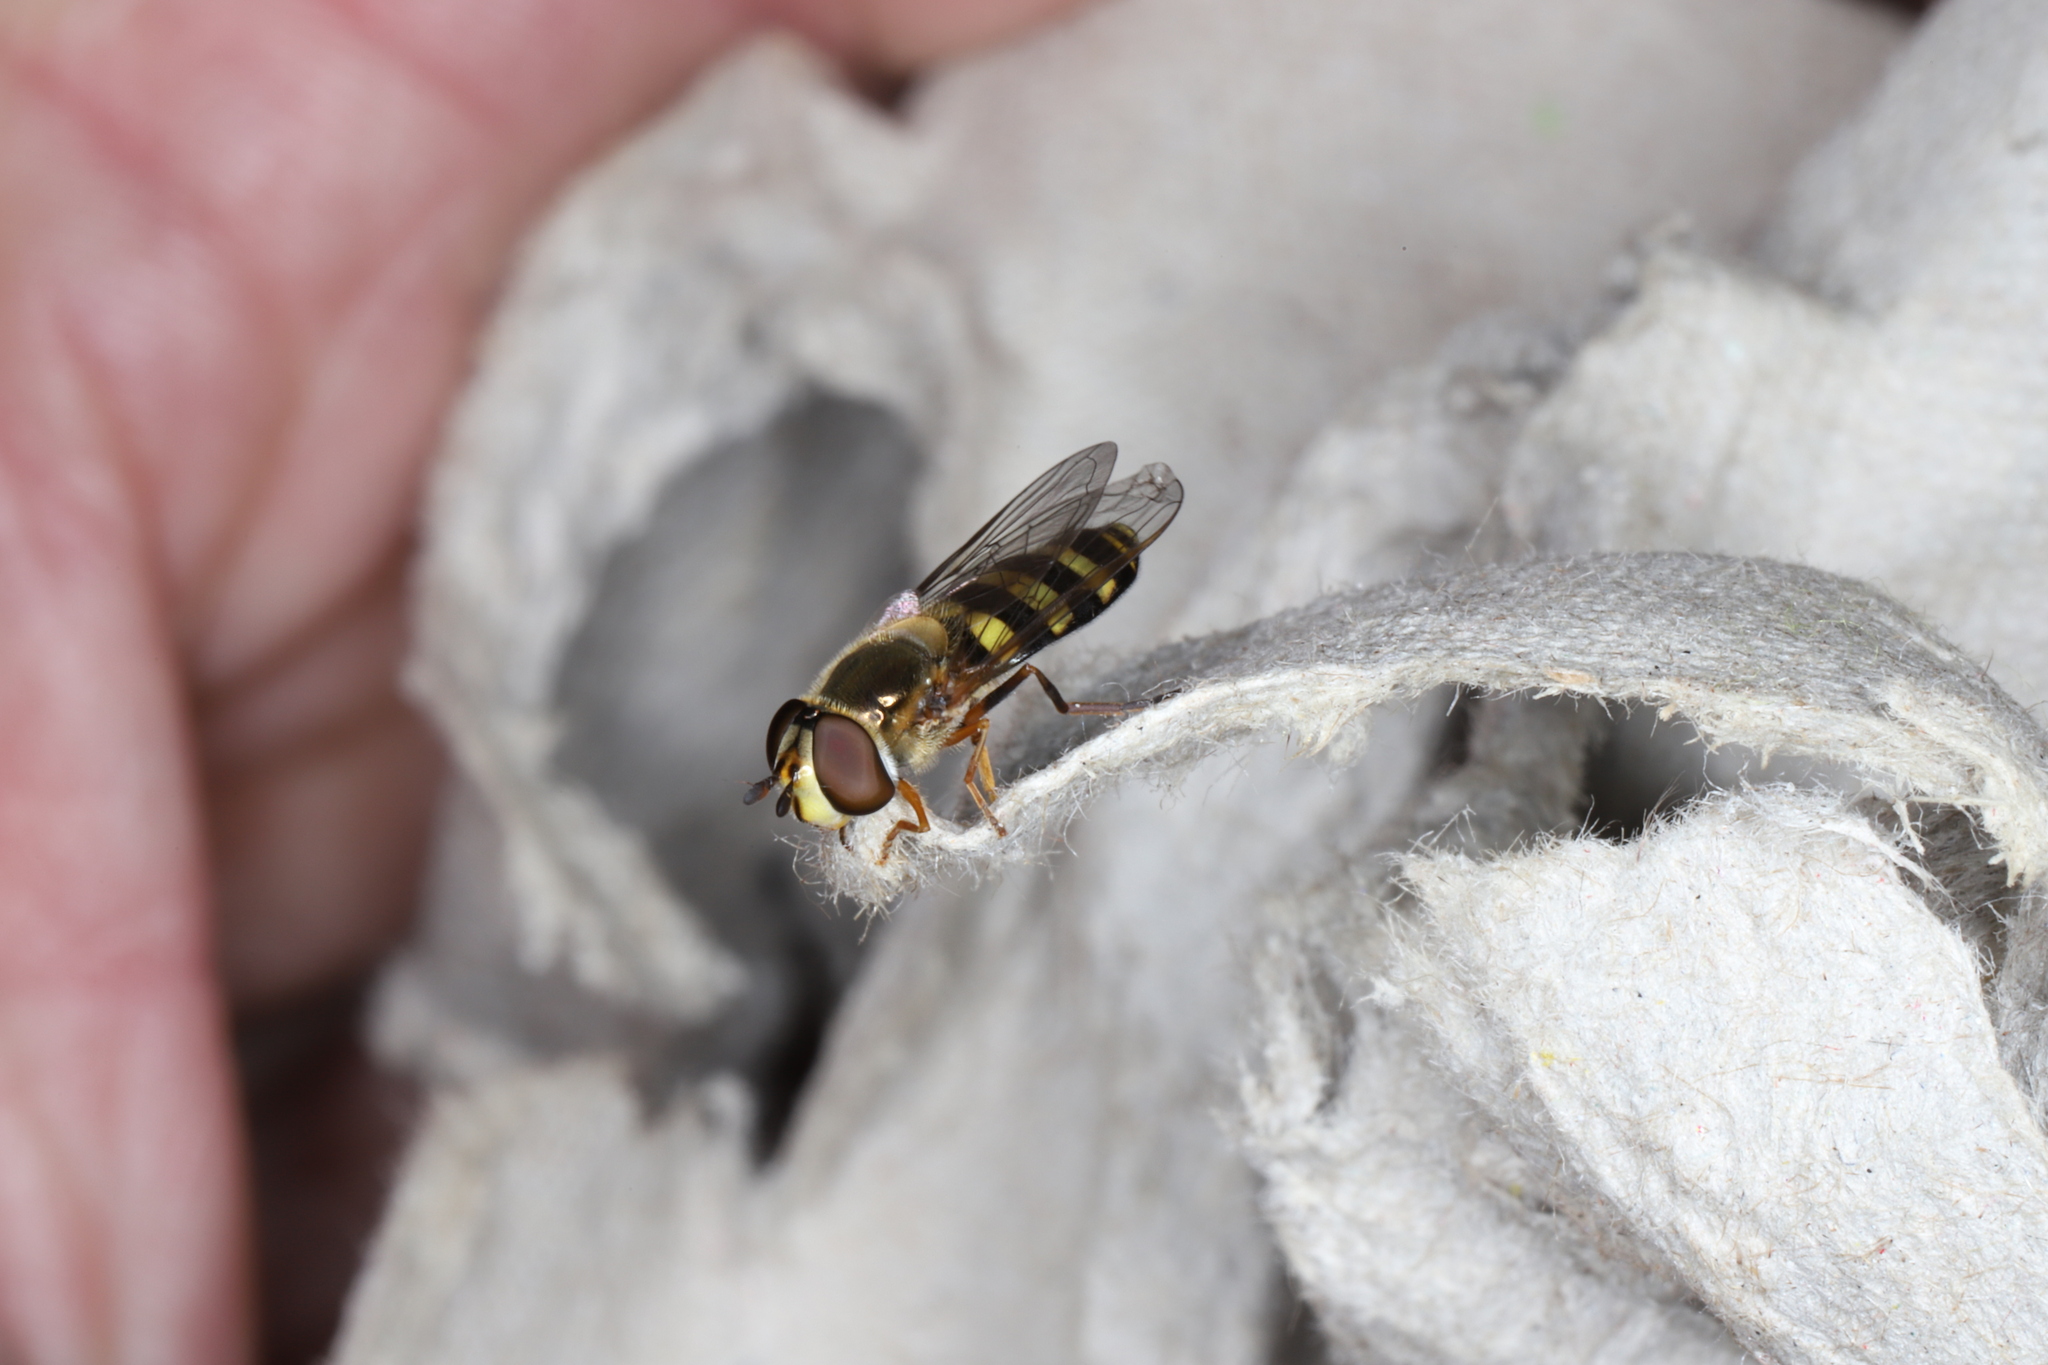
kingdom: Animalia
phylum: Arthropoda
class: Insecta
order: Diptera
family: Syrphidae
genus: Eupeodes
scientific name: Eupeodes
